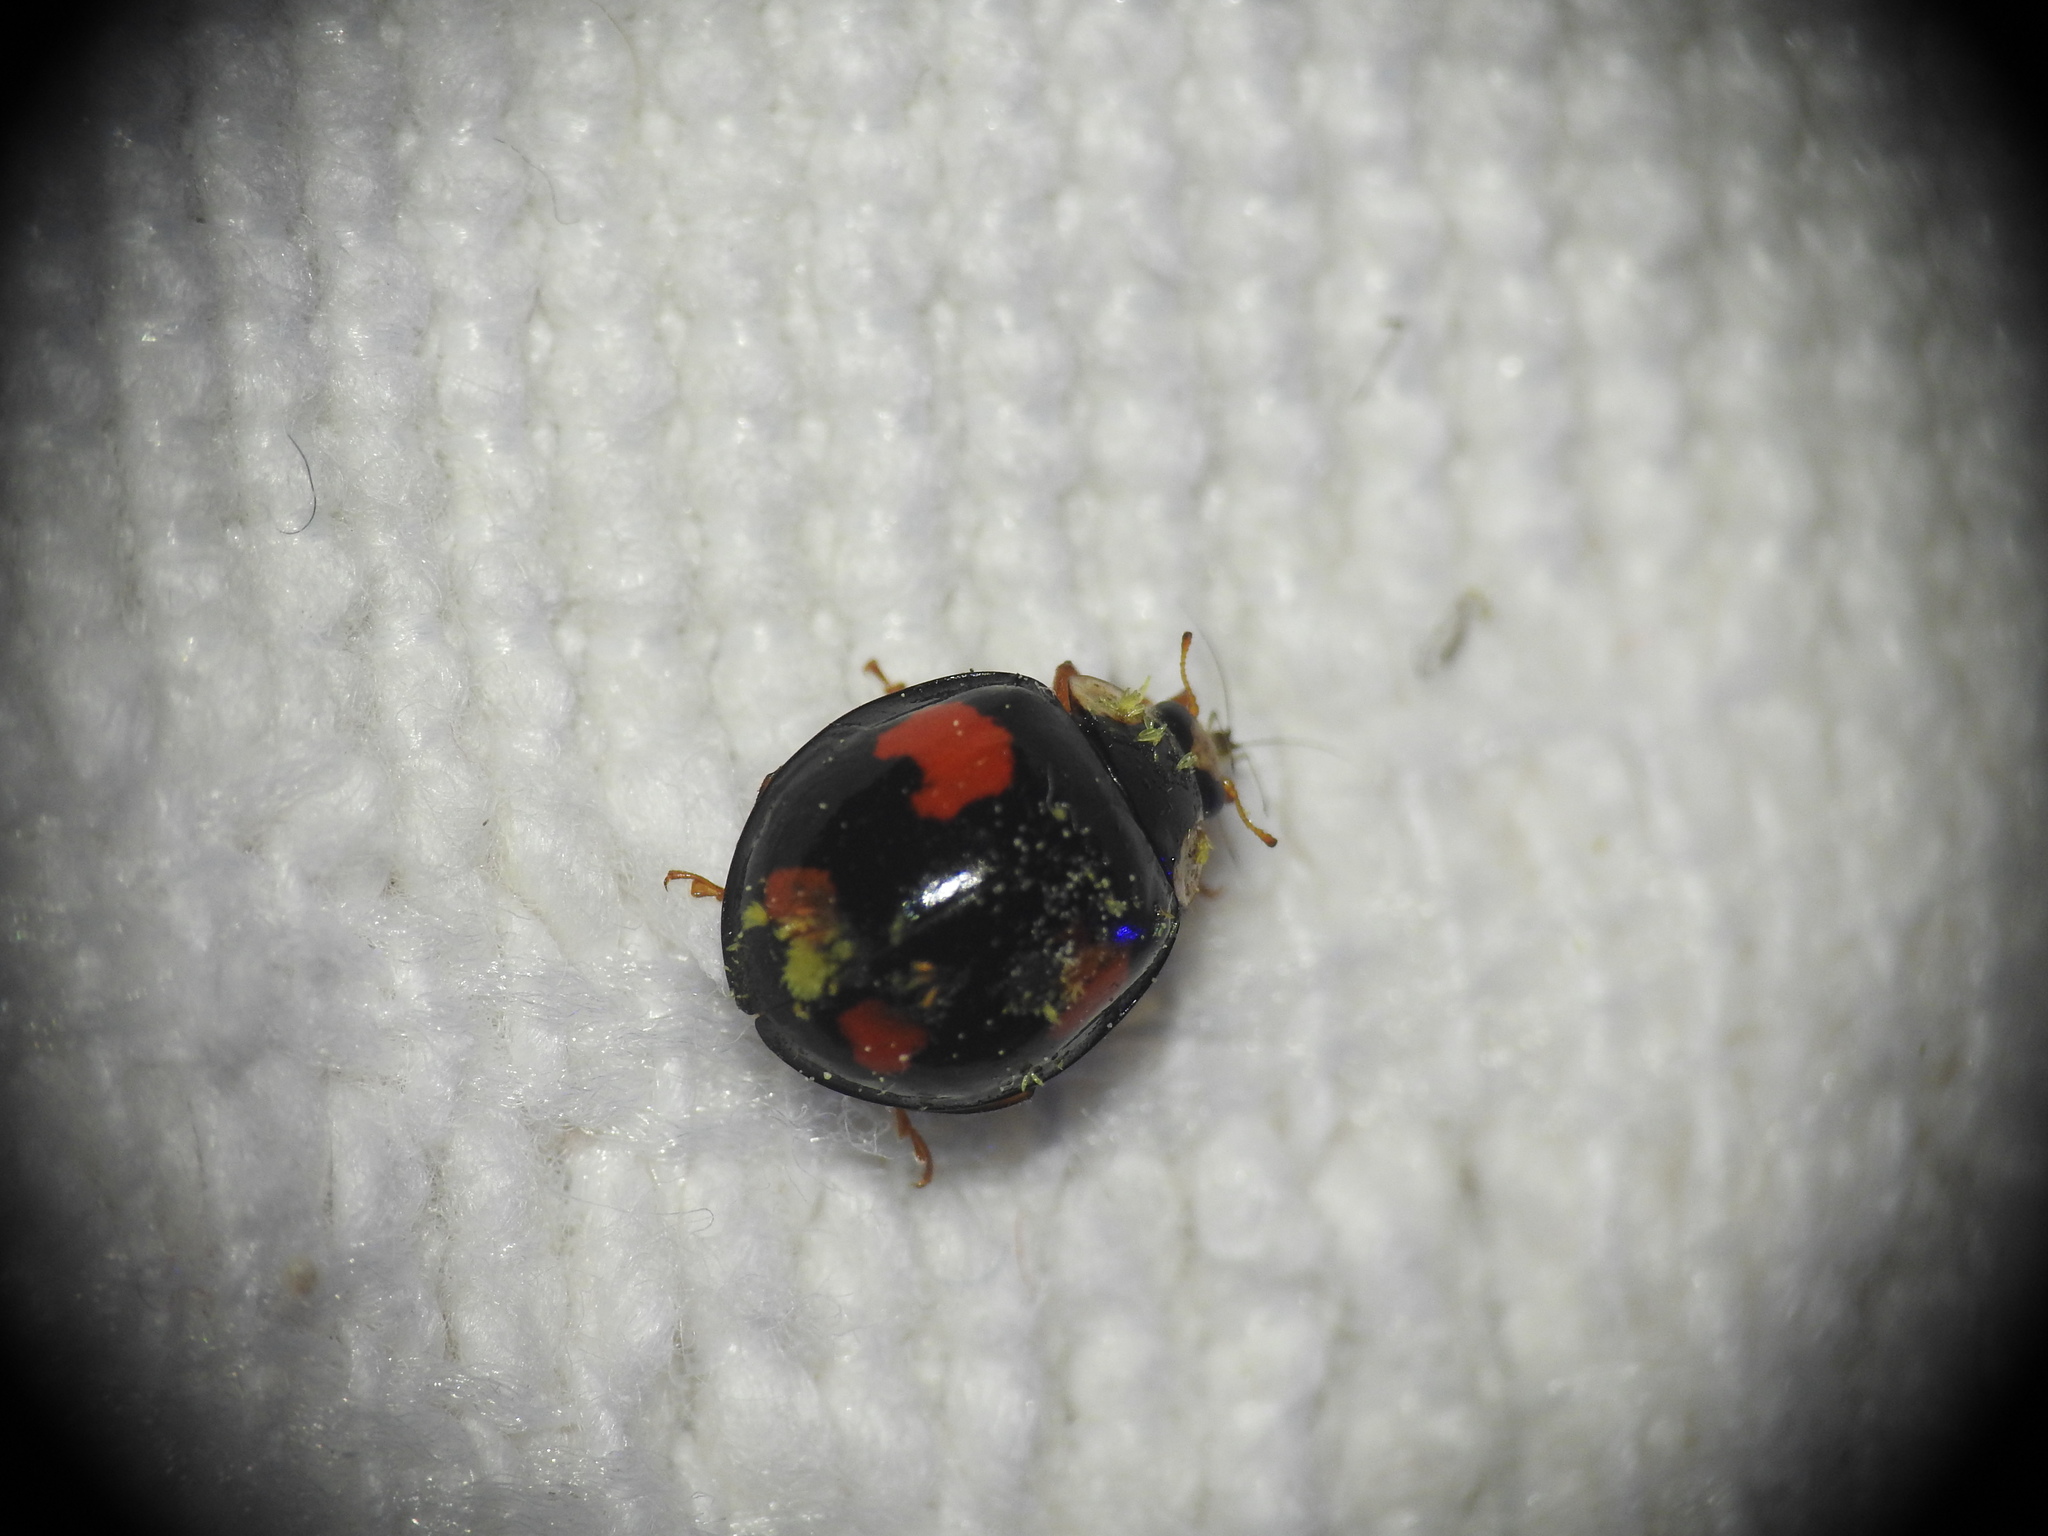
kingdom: Fungi
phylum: Ascomycota
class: Laboulbeniomycetes
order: Laboulbeniales
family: Laboulbeniaceae
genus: Hesperomyces
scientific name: Hesperomyces harmoniae
